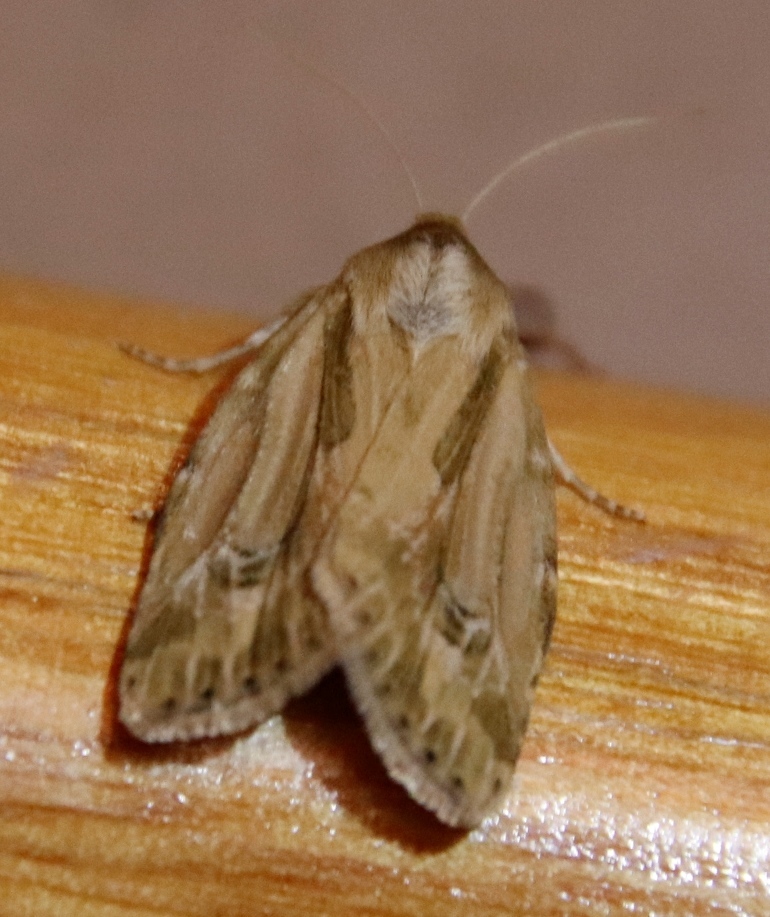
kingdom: Animalia
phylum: Arthropoda
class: Insecta
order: Lepidoptera
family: Noctuidae
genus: Heliocheilus
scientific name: Heliocheilus stigmatia
